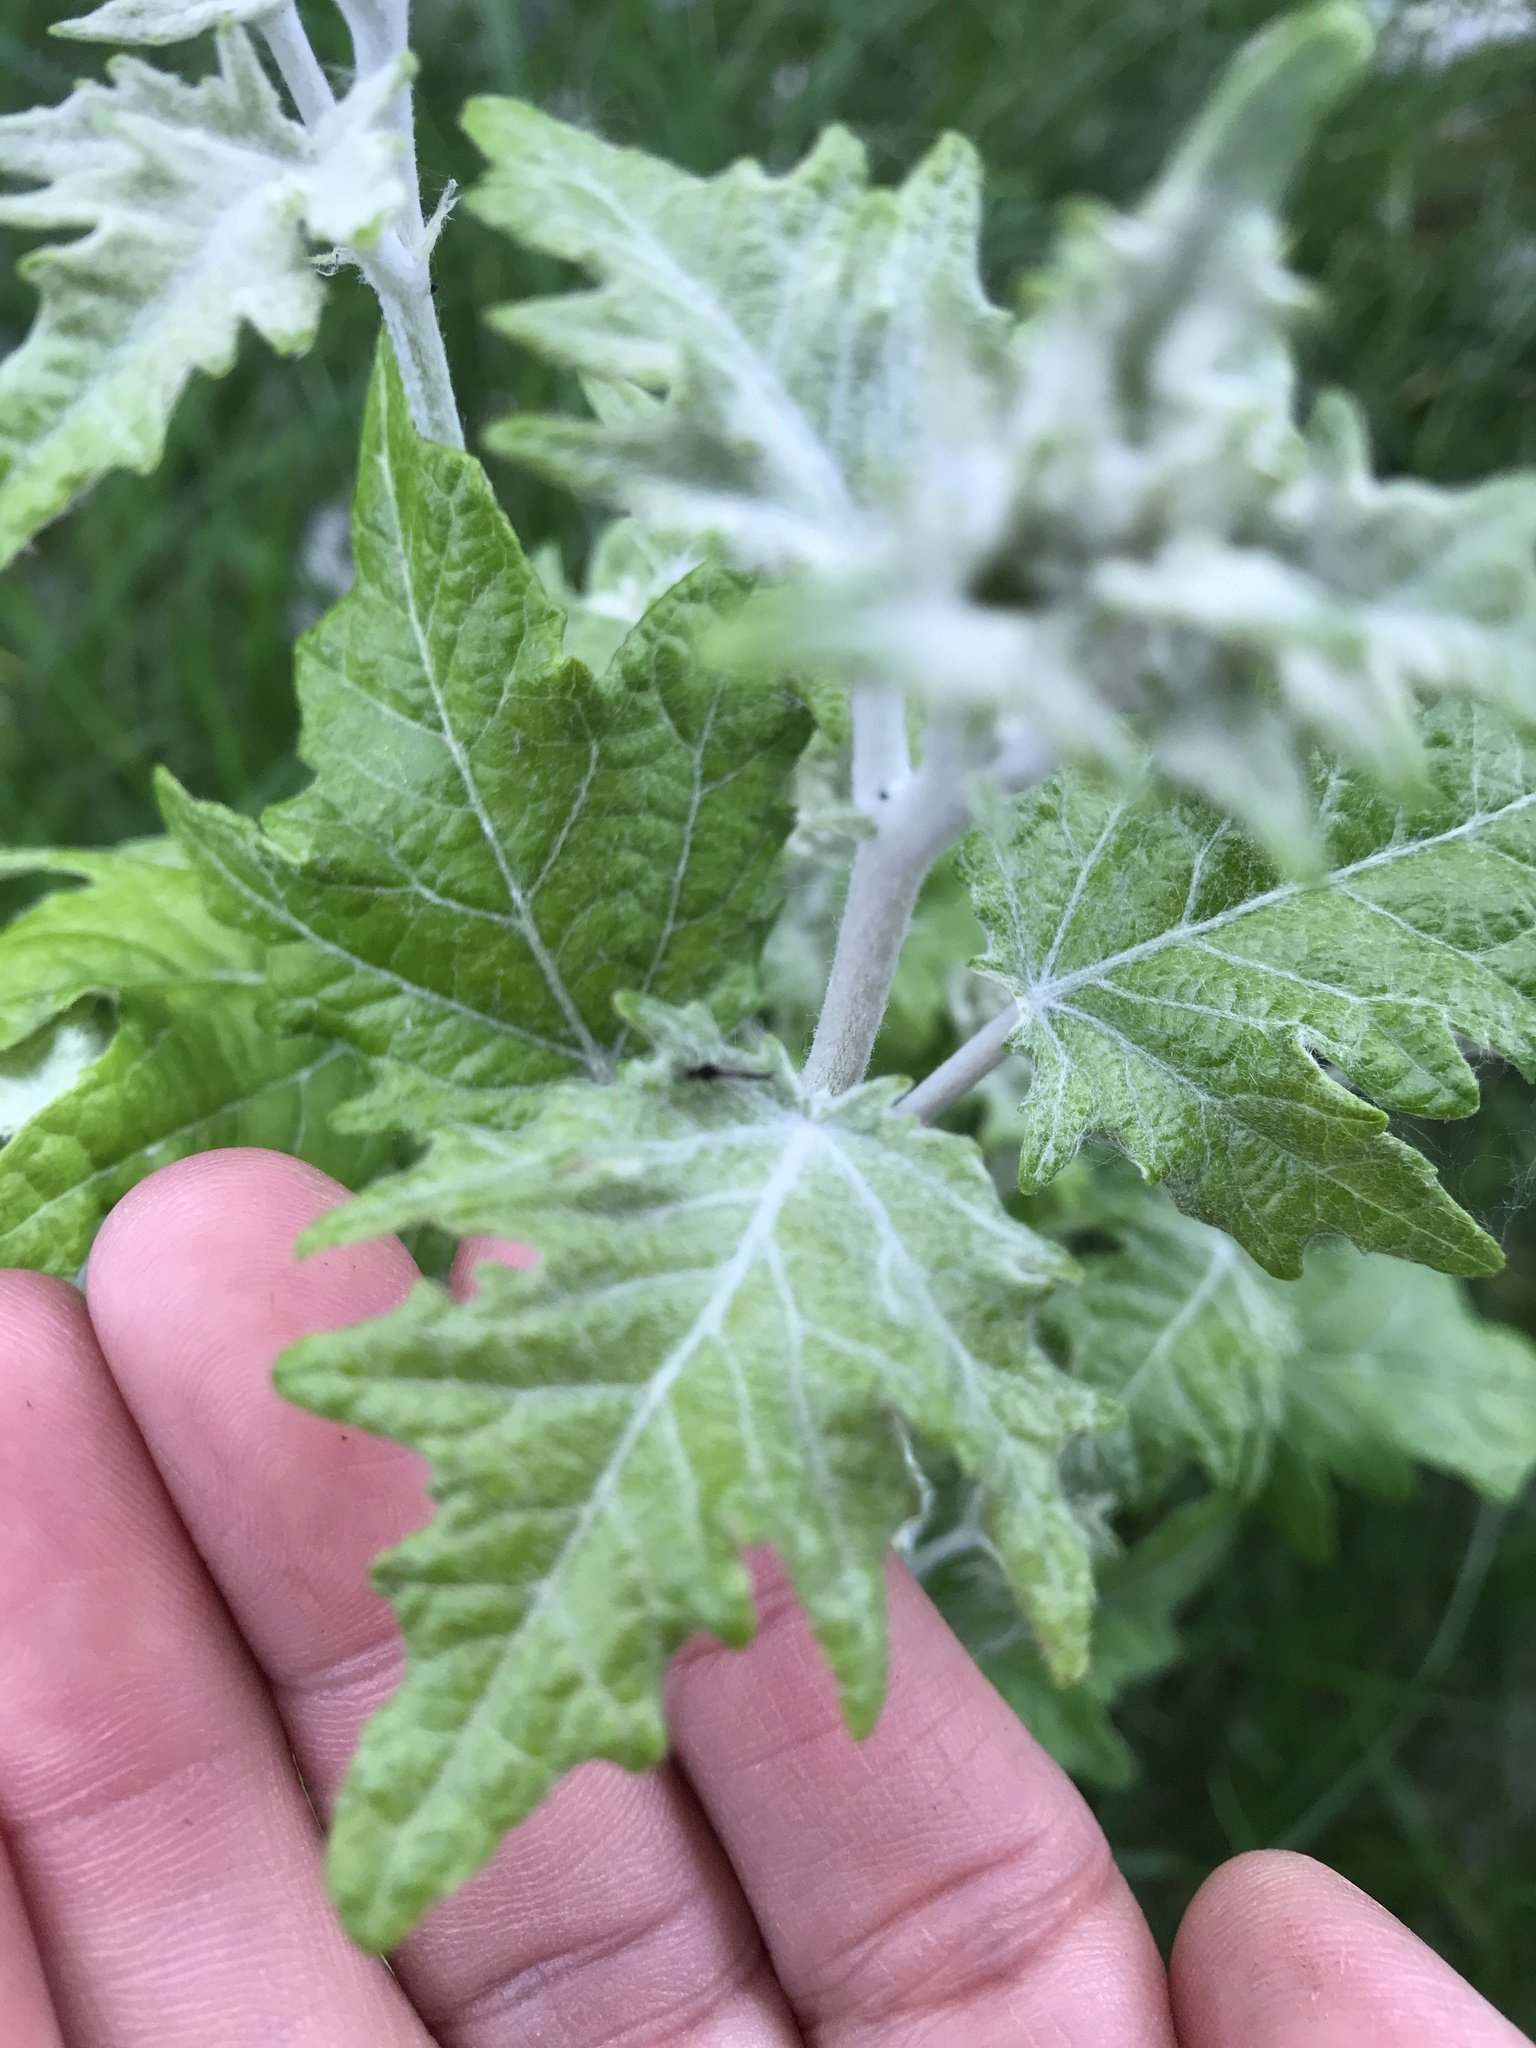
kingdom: Plantae
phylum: Tracheophyta
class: Magnoliopsida
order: Malpighiales
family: Salicaceae
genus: Populus
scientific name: Populus alba
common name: White poplar
